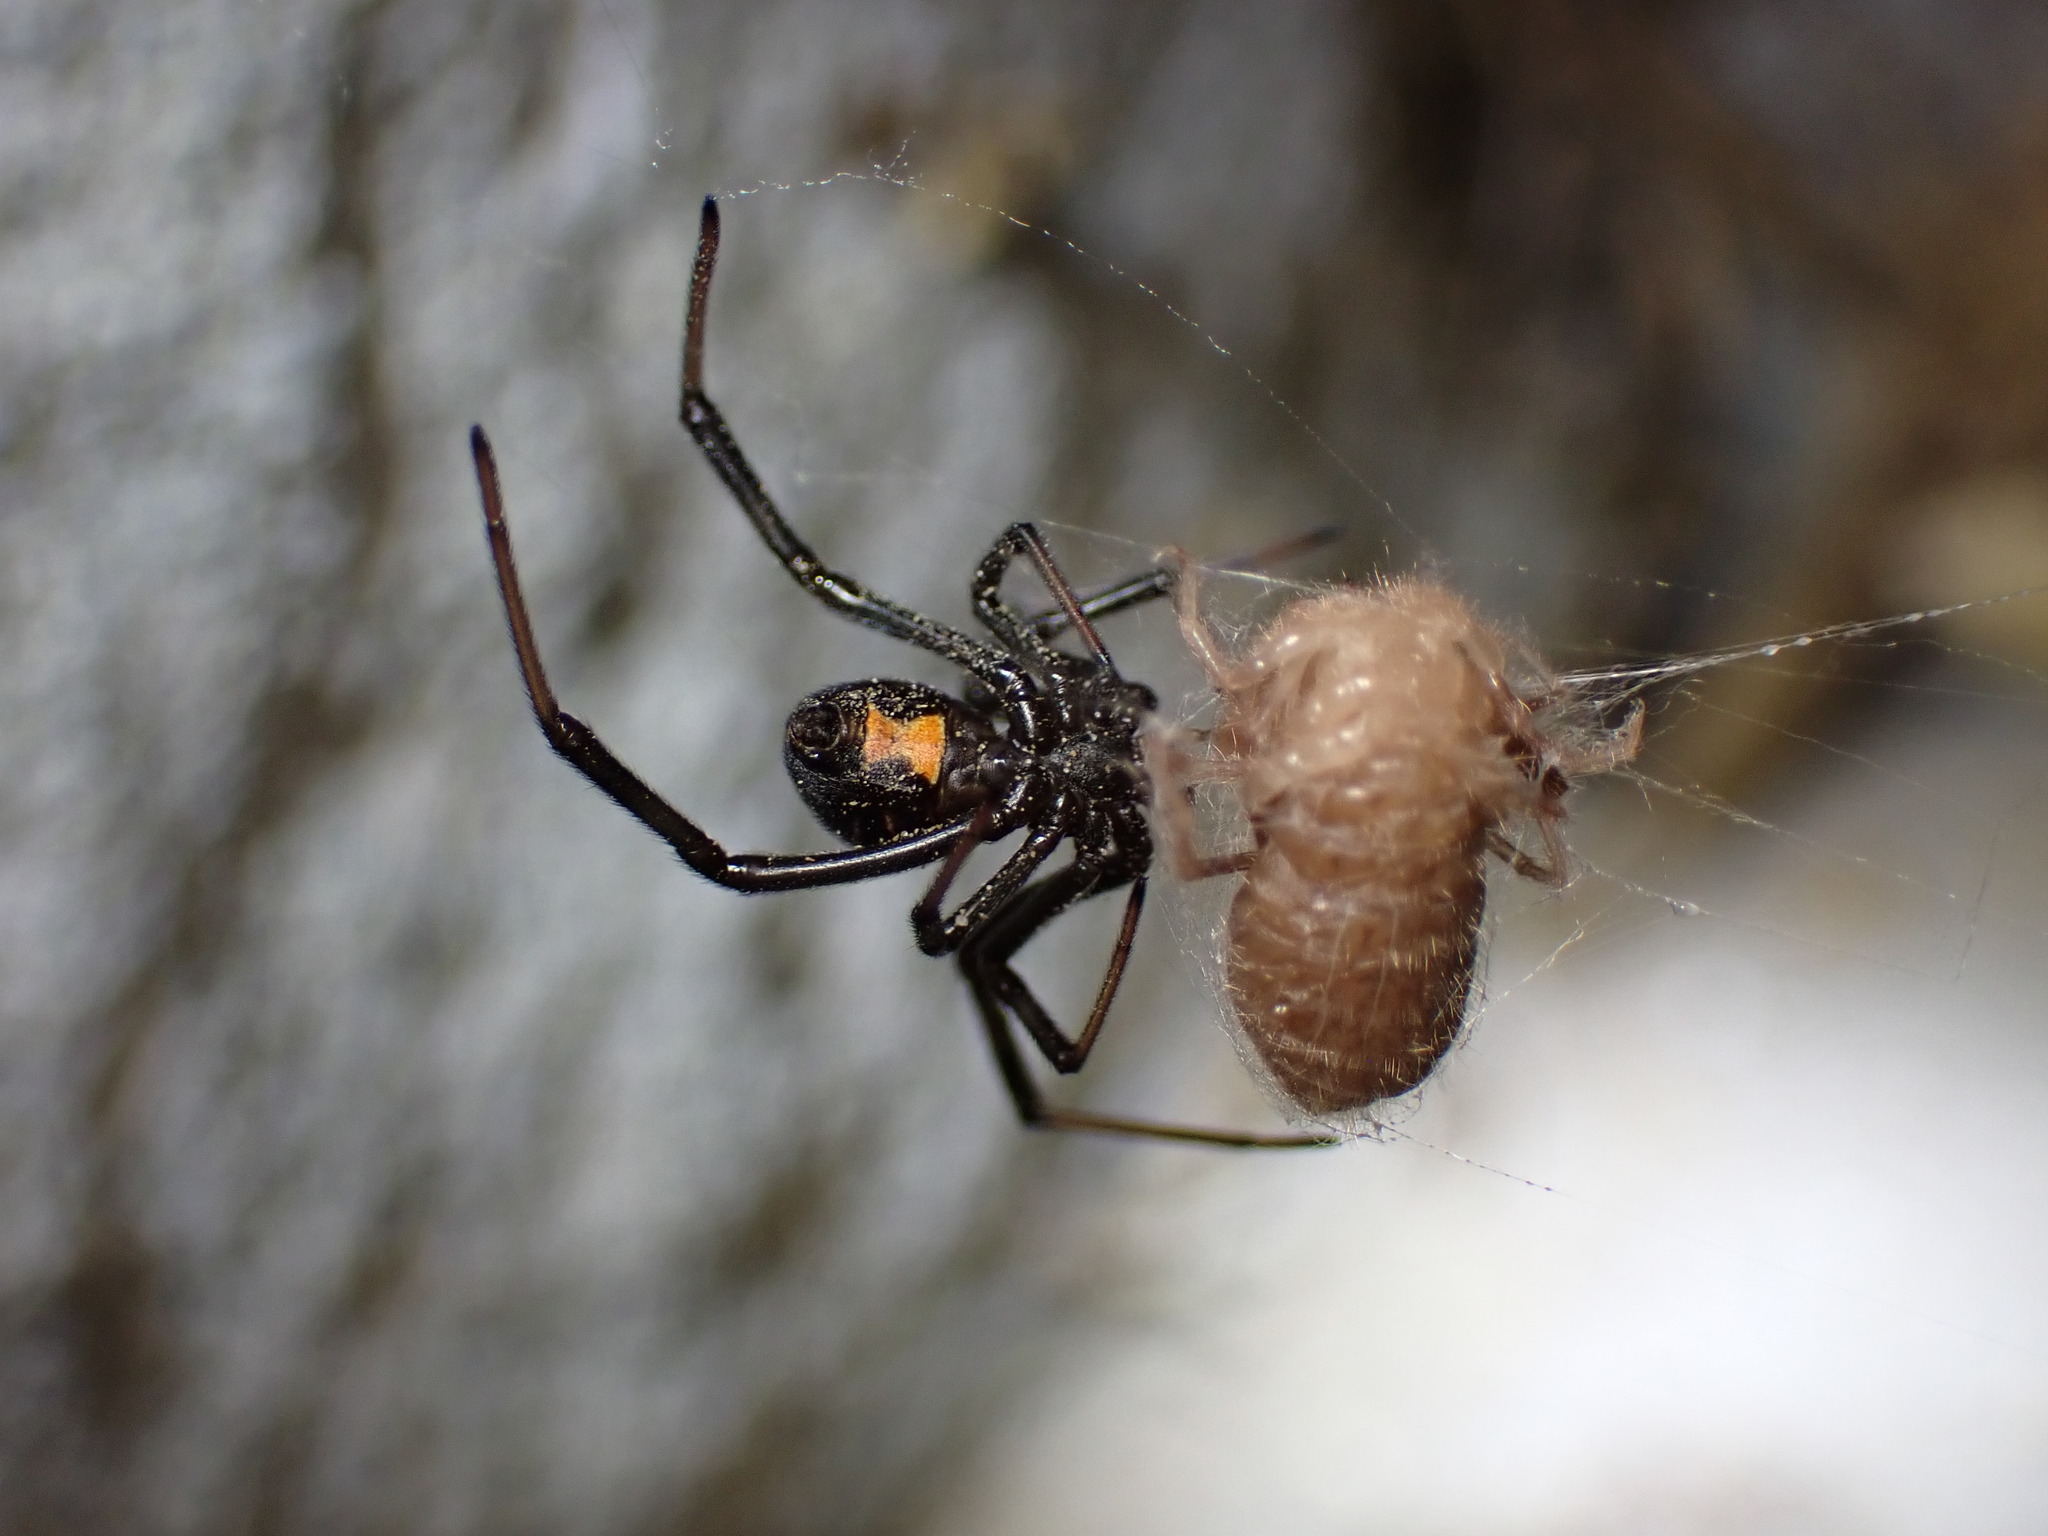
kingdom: Animalia
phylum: Arthropoda
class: Arachnida
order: Araneae
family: Theridiidae
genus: Latrodectus
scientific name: Latrodectus hesperus
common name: Western black widow
